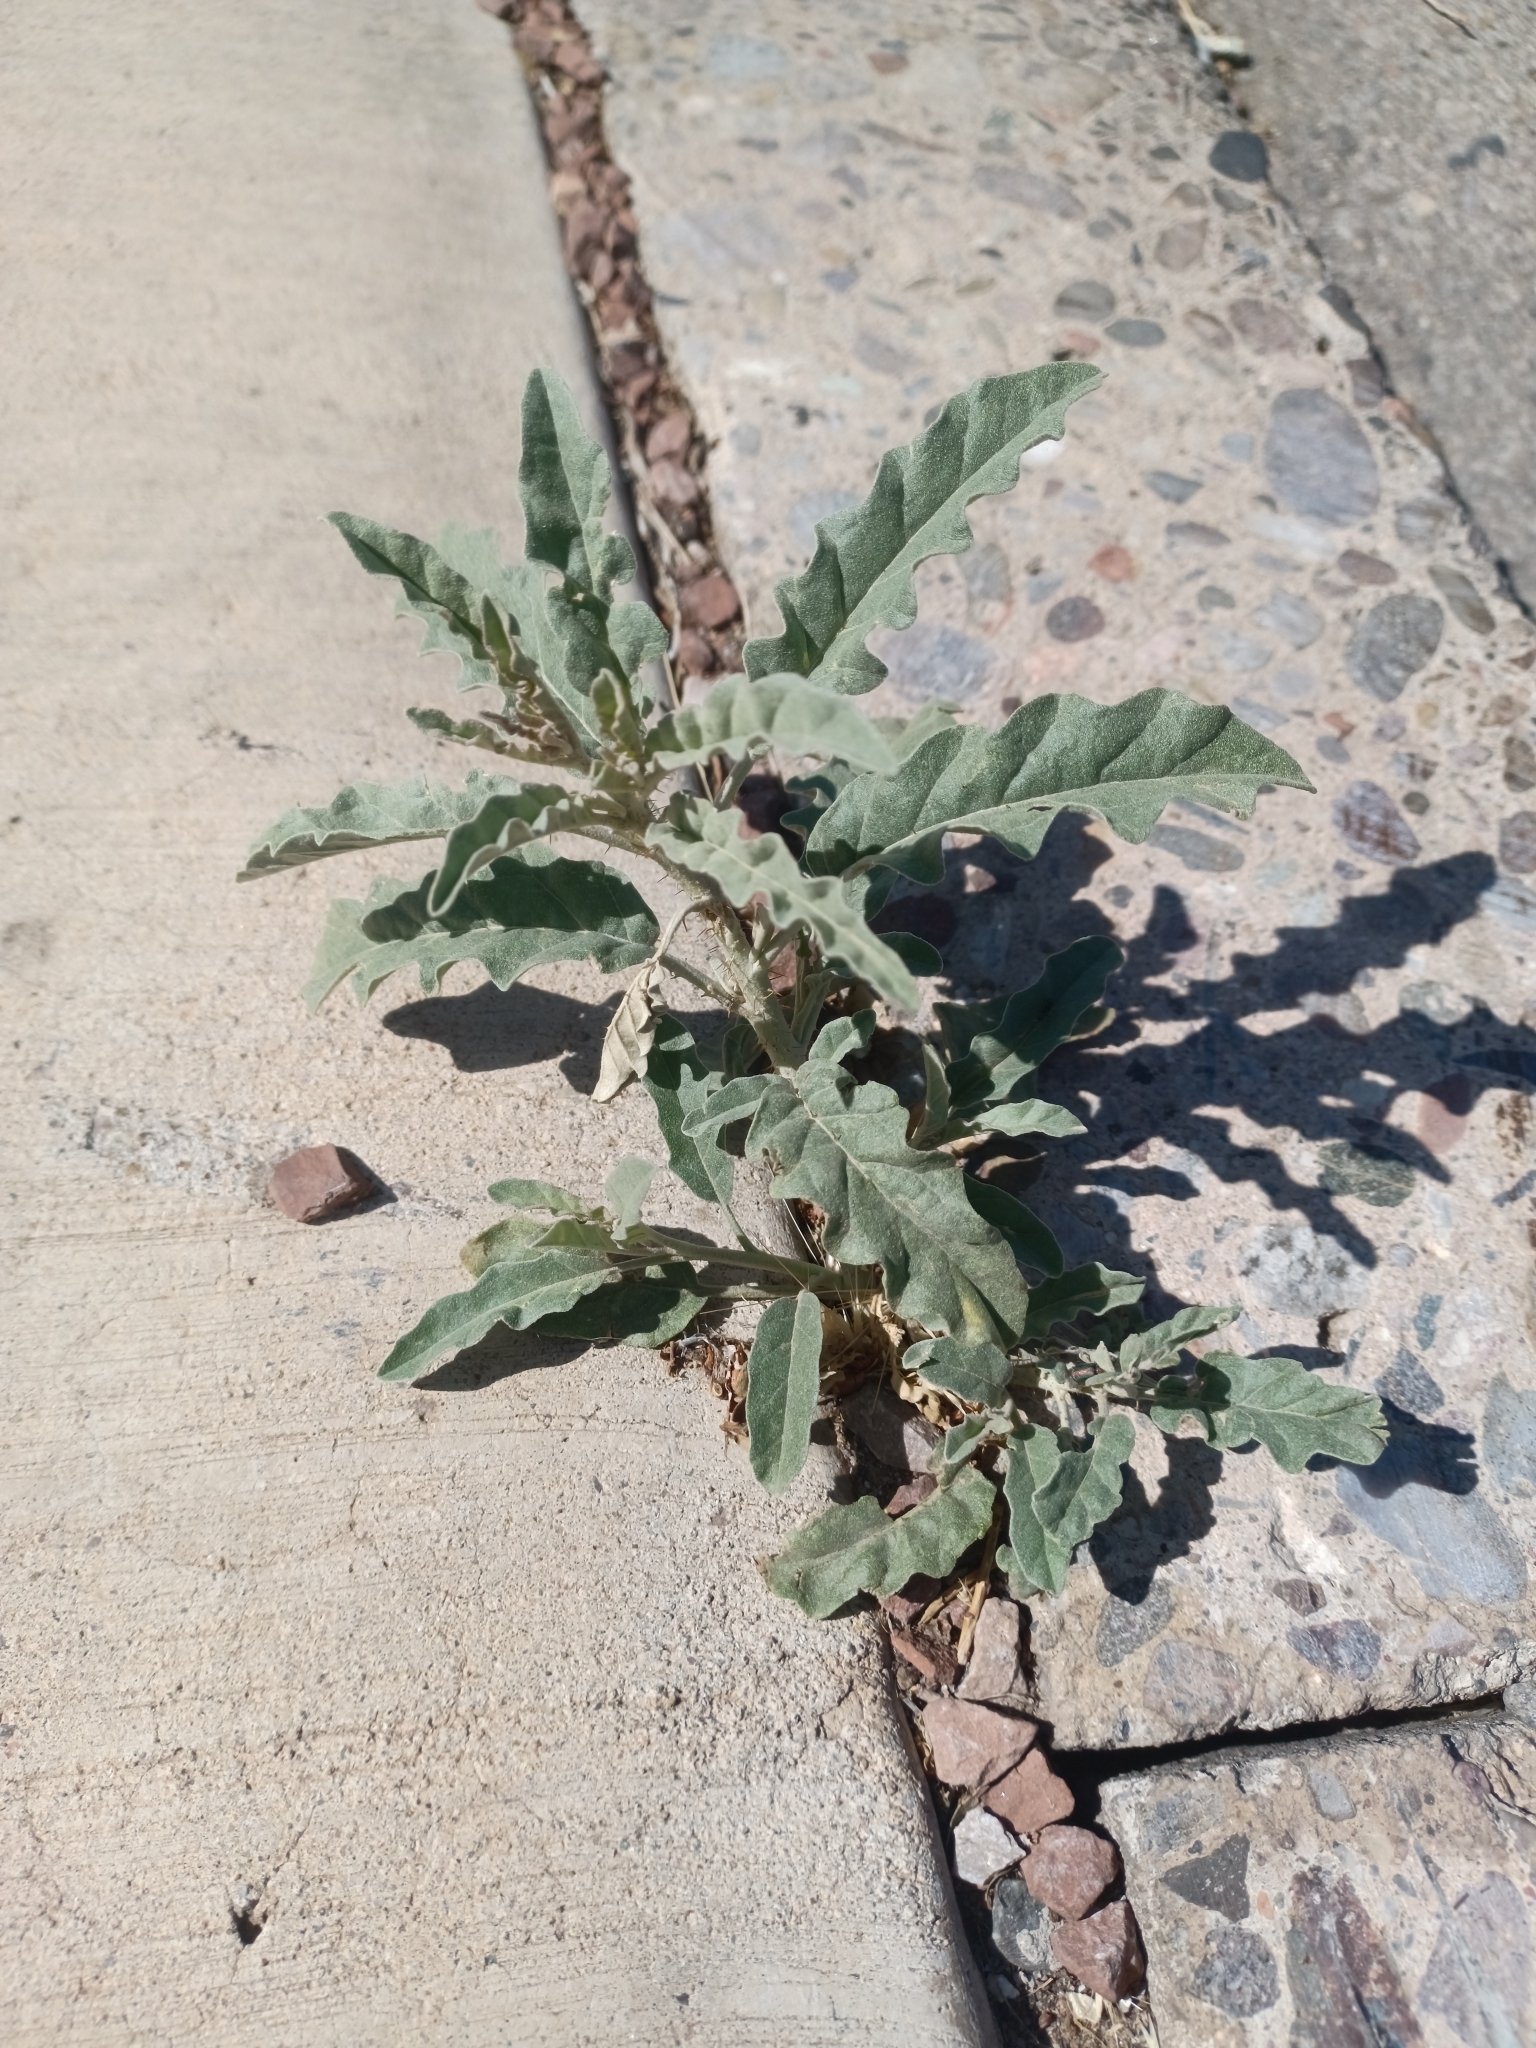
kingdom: Plantae
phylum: Tracheophyta
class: Magnoliopsida
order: Solanales
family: Solanaceae
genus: Solanum
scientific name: Solanum elaeagnifolium
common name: Silverleaf nightshade
